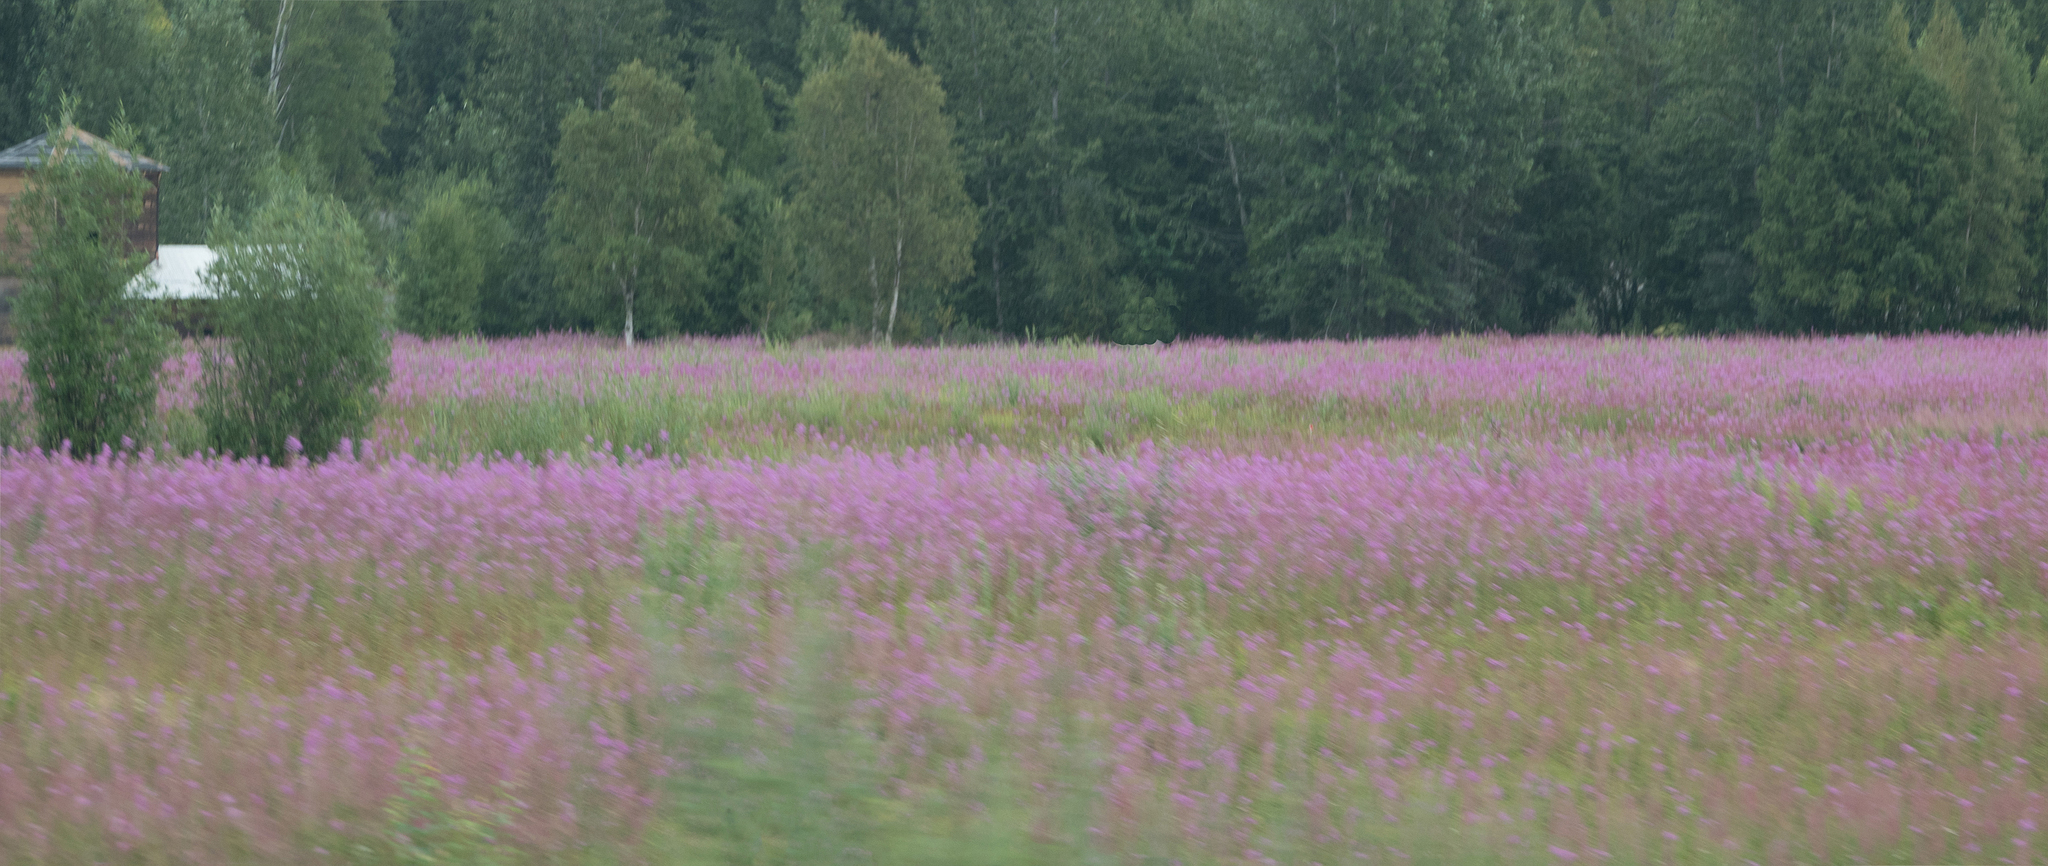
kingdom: Plantae
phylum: Tracheophyta
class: Magnoliopsida
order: Myrtales
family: Onagraceae
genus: Chamaenerion
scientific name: Chamaenerion angustifolium
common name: Fireweed
